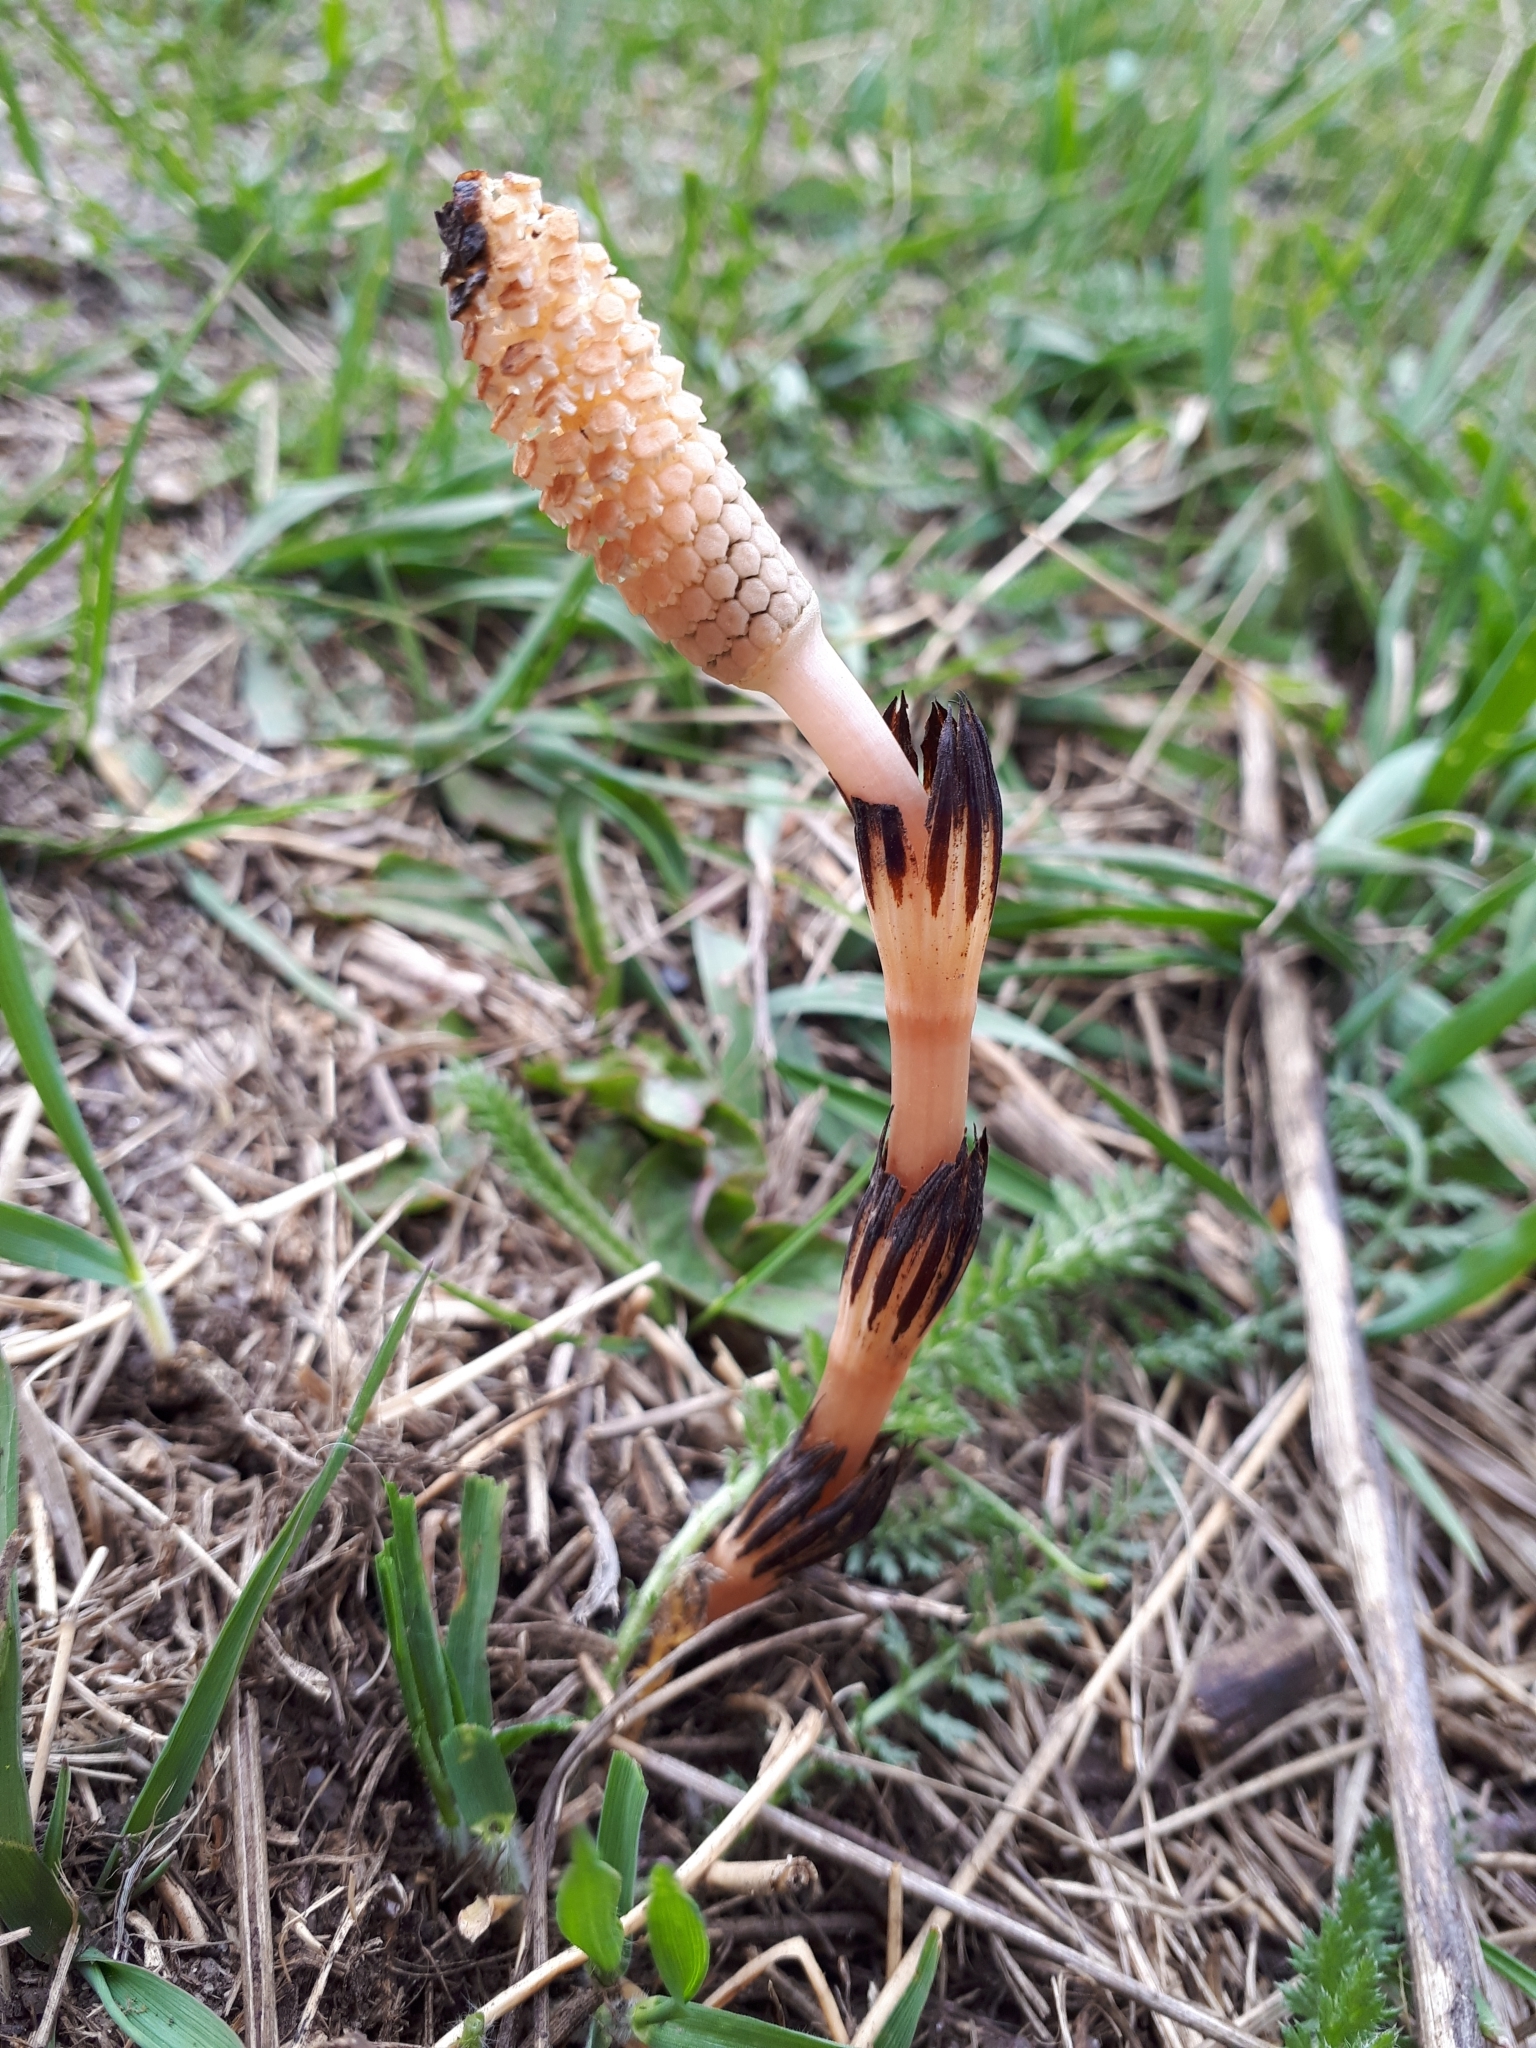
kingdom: Plantae
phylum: Tracheophyta
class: Polypodiopsida
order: Equisetales
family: Equisetaceae
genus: Equisetum
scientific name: Equisetum arvense
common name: Field horsetail
